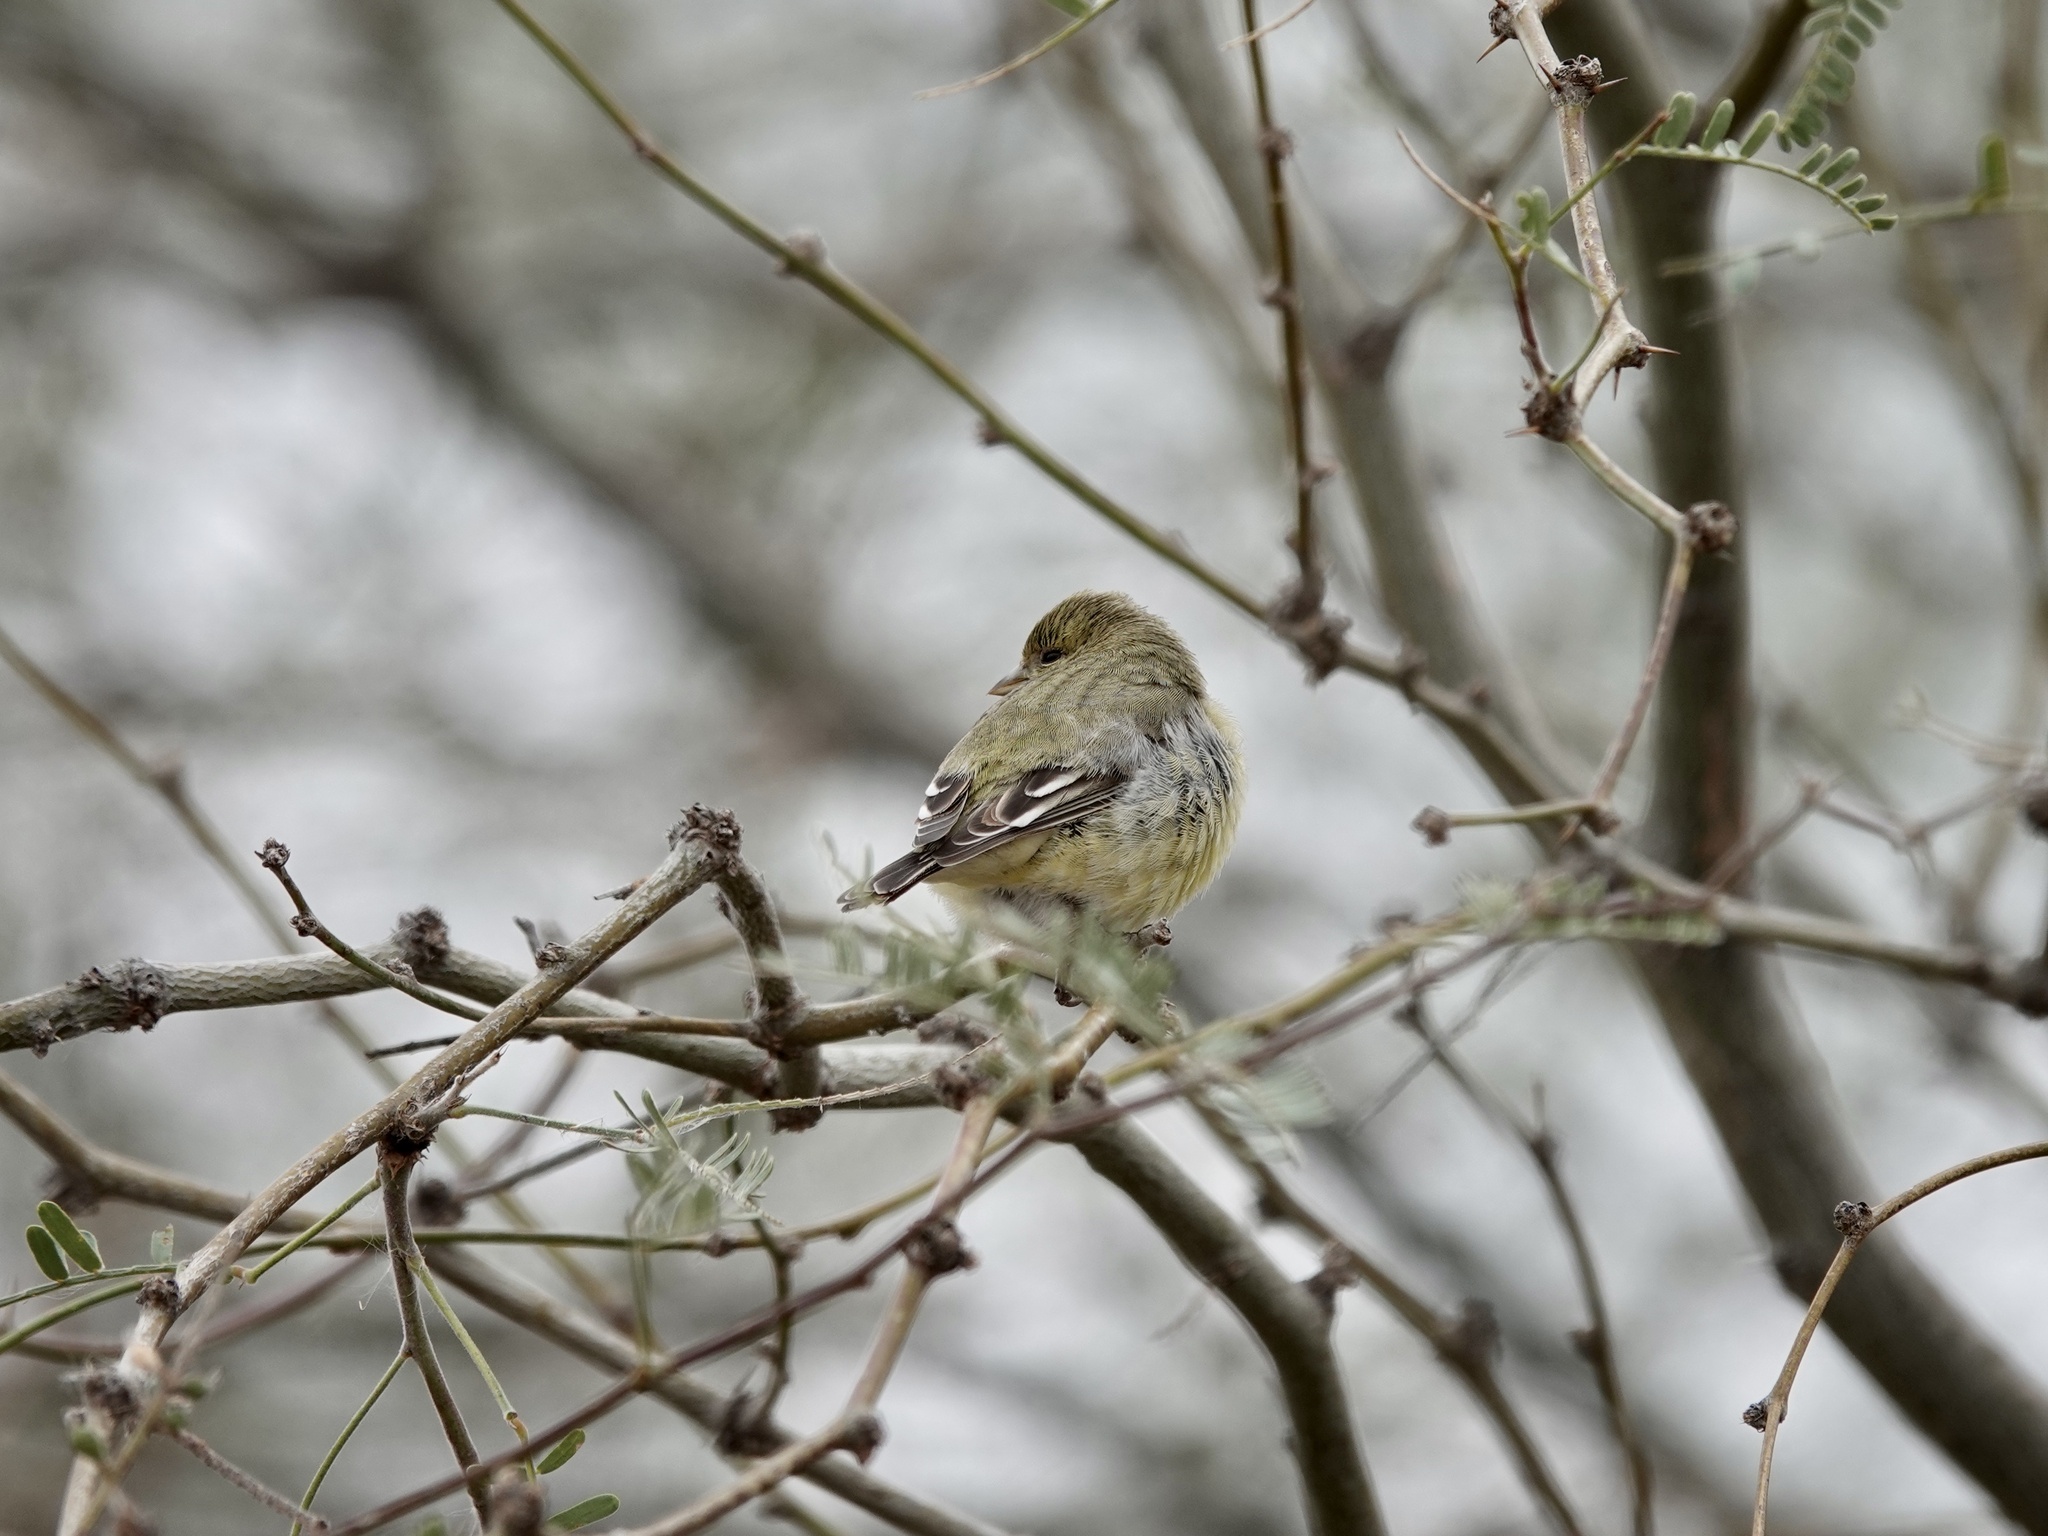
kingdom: Animalia
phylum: Chordata
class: Aves
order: Passeriformes
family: Fringillidae
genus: Spinus
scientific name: Spinus psaltria
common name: Lesser goldfinch
